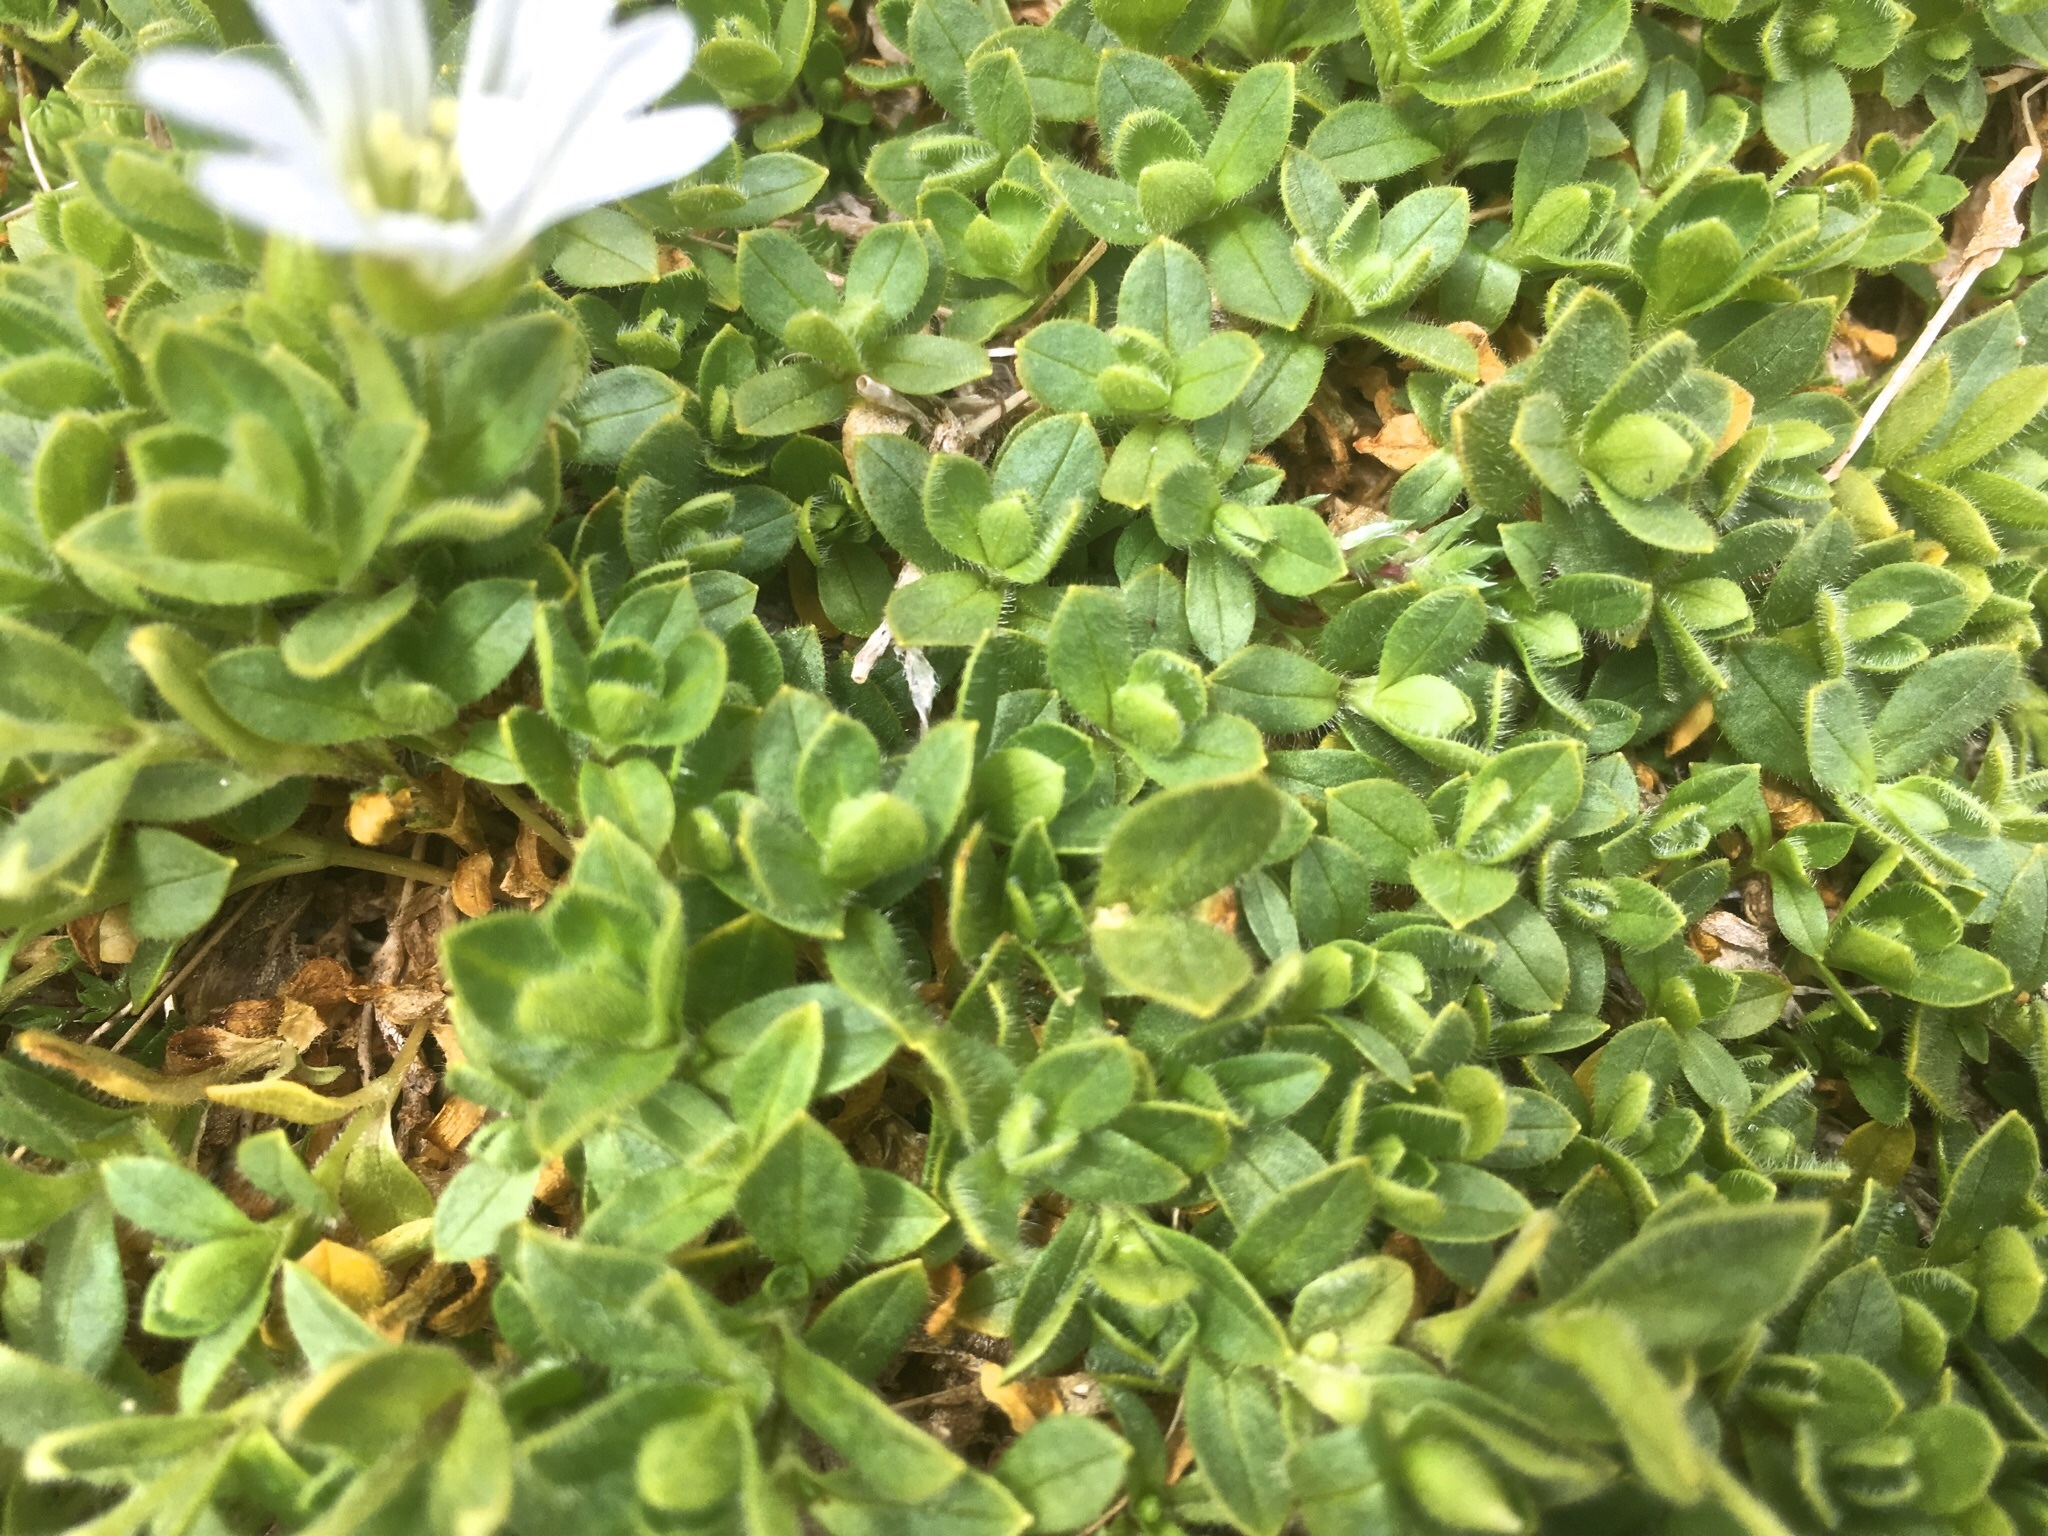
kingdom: Plantae
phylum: Tracheophyta
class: Magnoliopsida
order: Caryophyllales
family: Caryophyllaceae
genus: Cerastium
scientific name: Cerastium uniflorum
